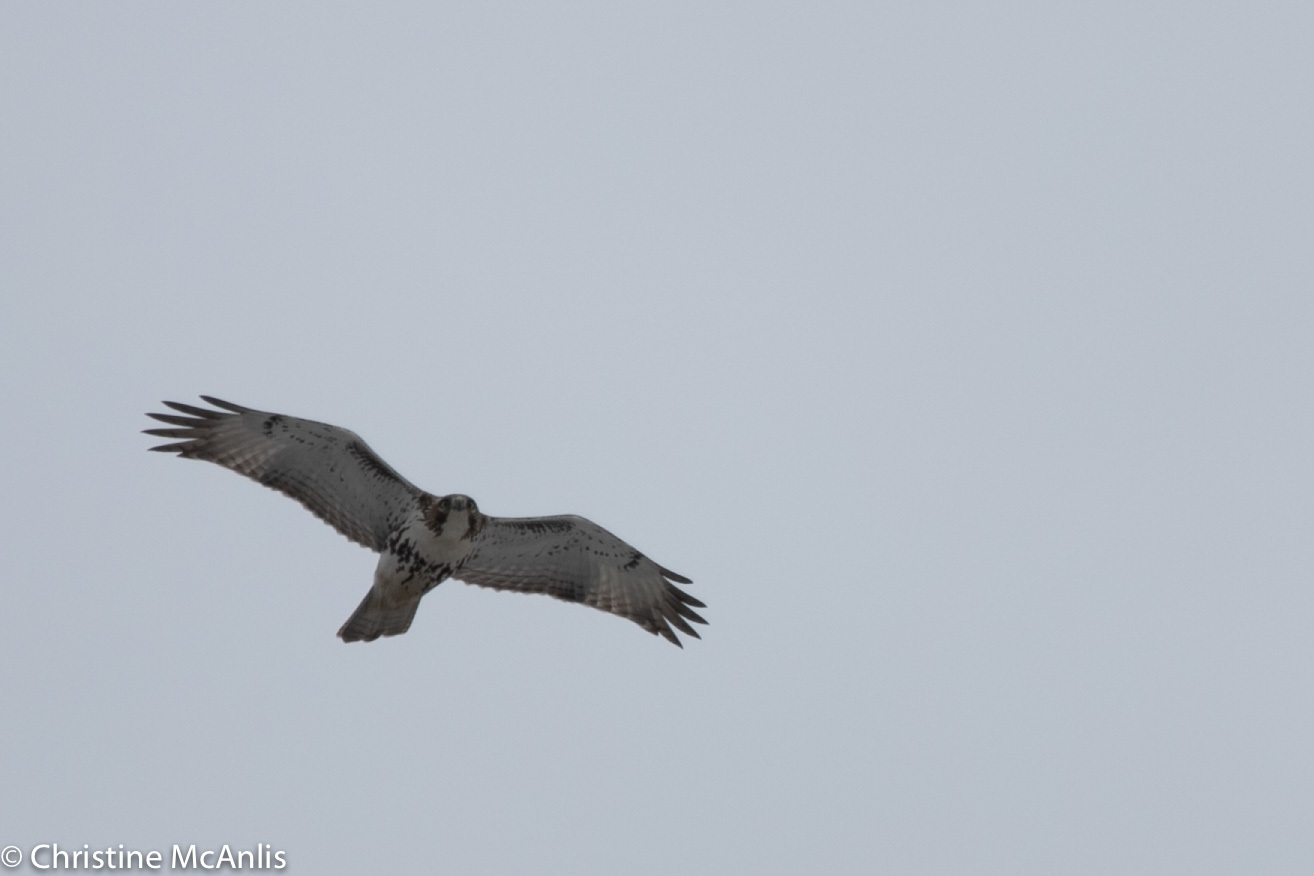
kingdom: Animalia
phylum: Chordata
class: Aves
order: Accipitriformes
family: Accipitridae
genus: Buteo
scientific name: Buteo jamaicensis
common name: Red-tailed hawk
